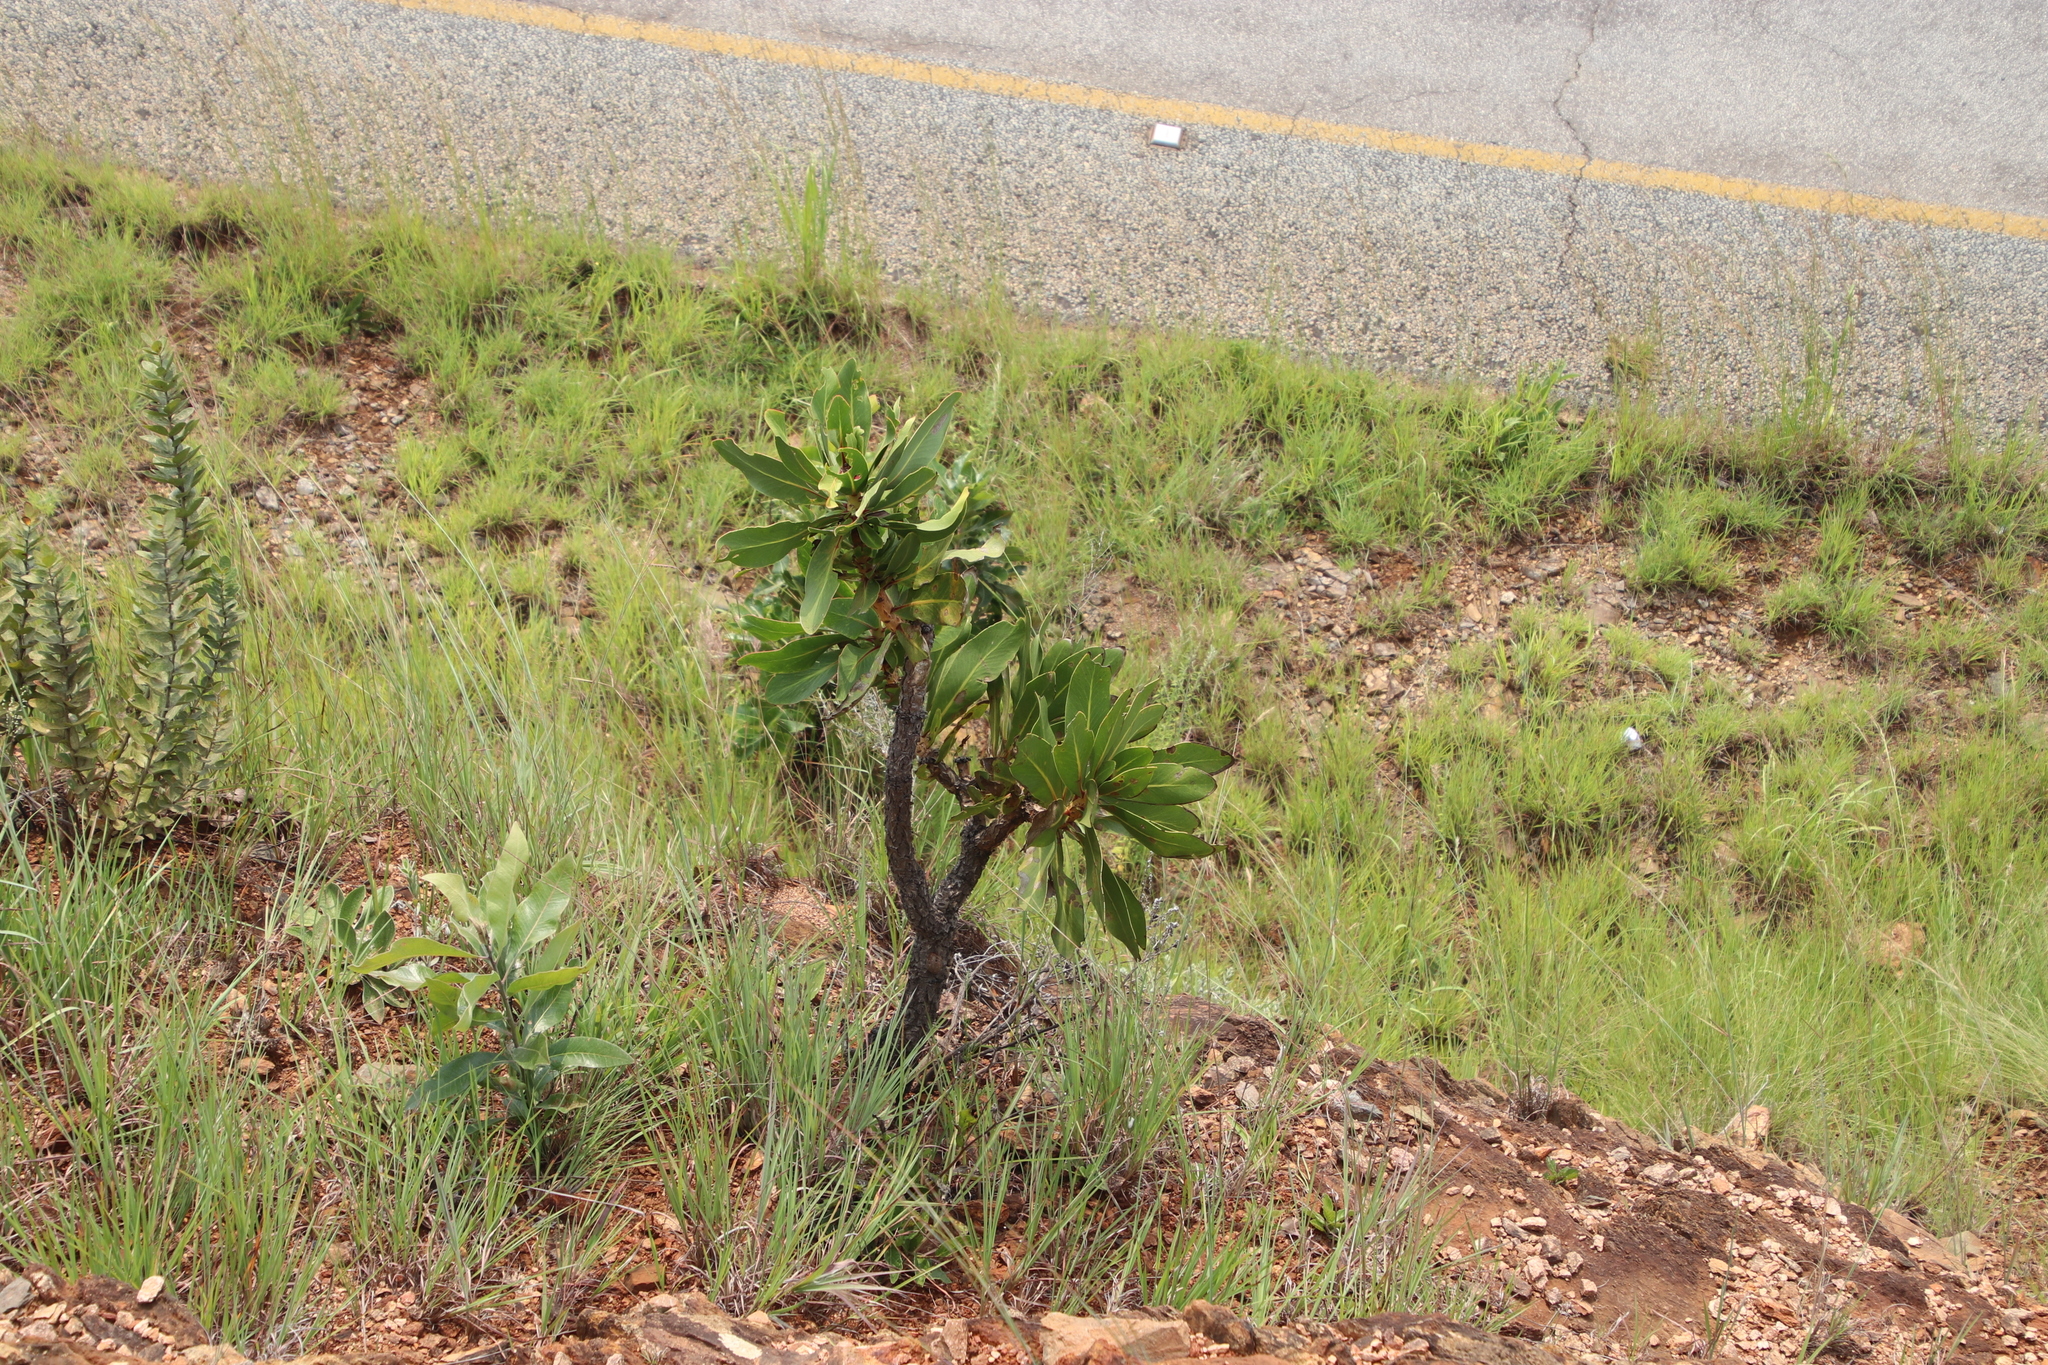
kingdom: Plantae
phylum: Tracheophyta
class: Magnoliopsida
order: Proteales
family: Proteaceae
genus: Protea
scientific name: Protea comptonii
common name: Barberton mountain sugarbush
